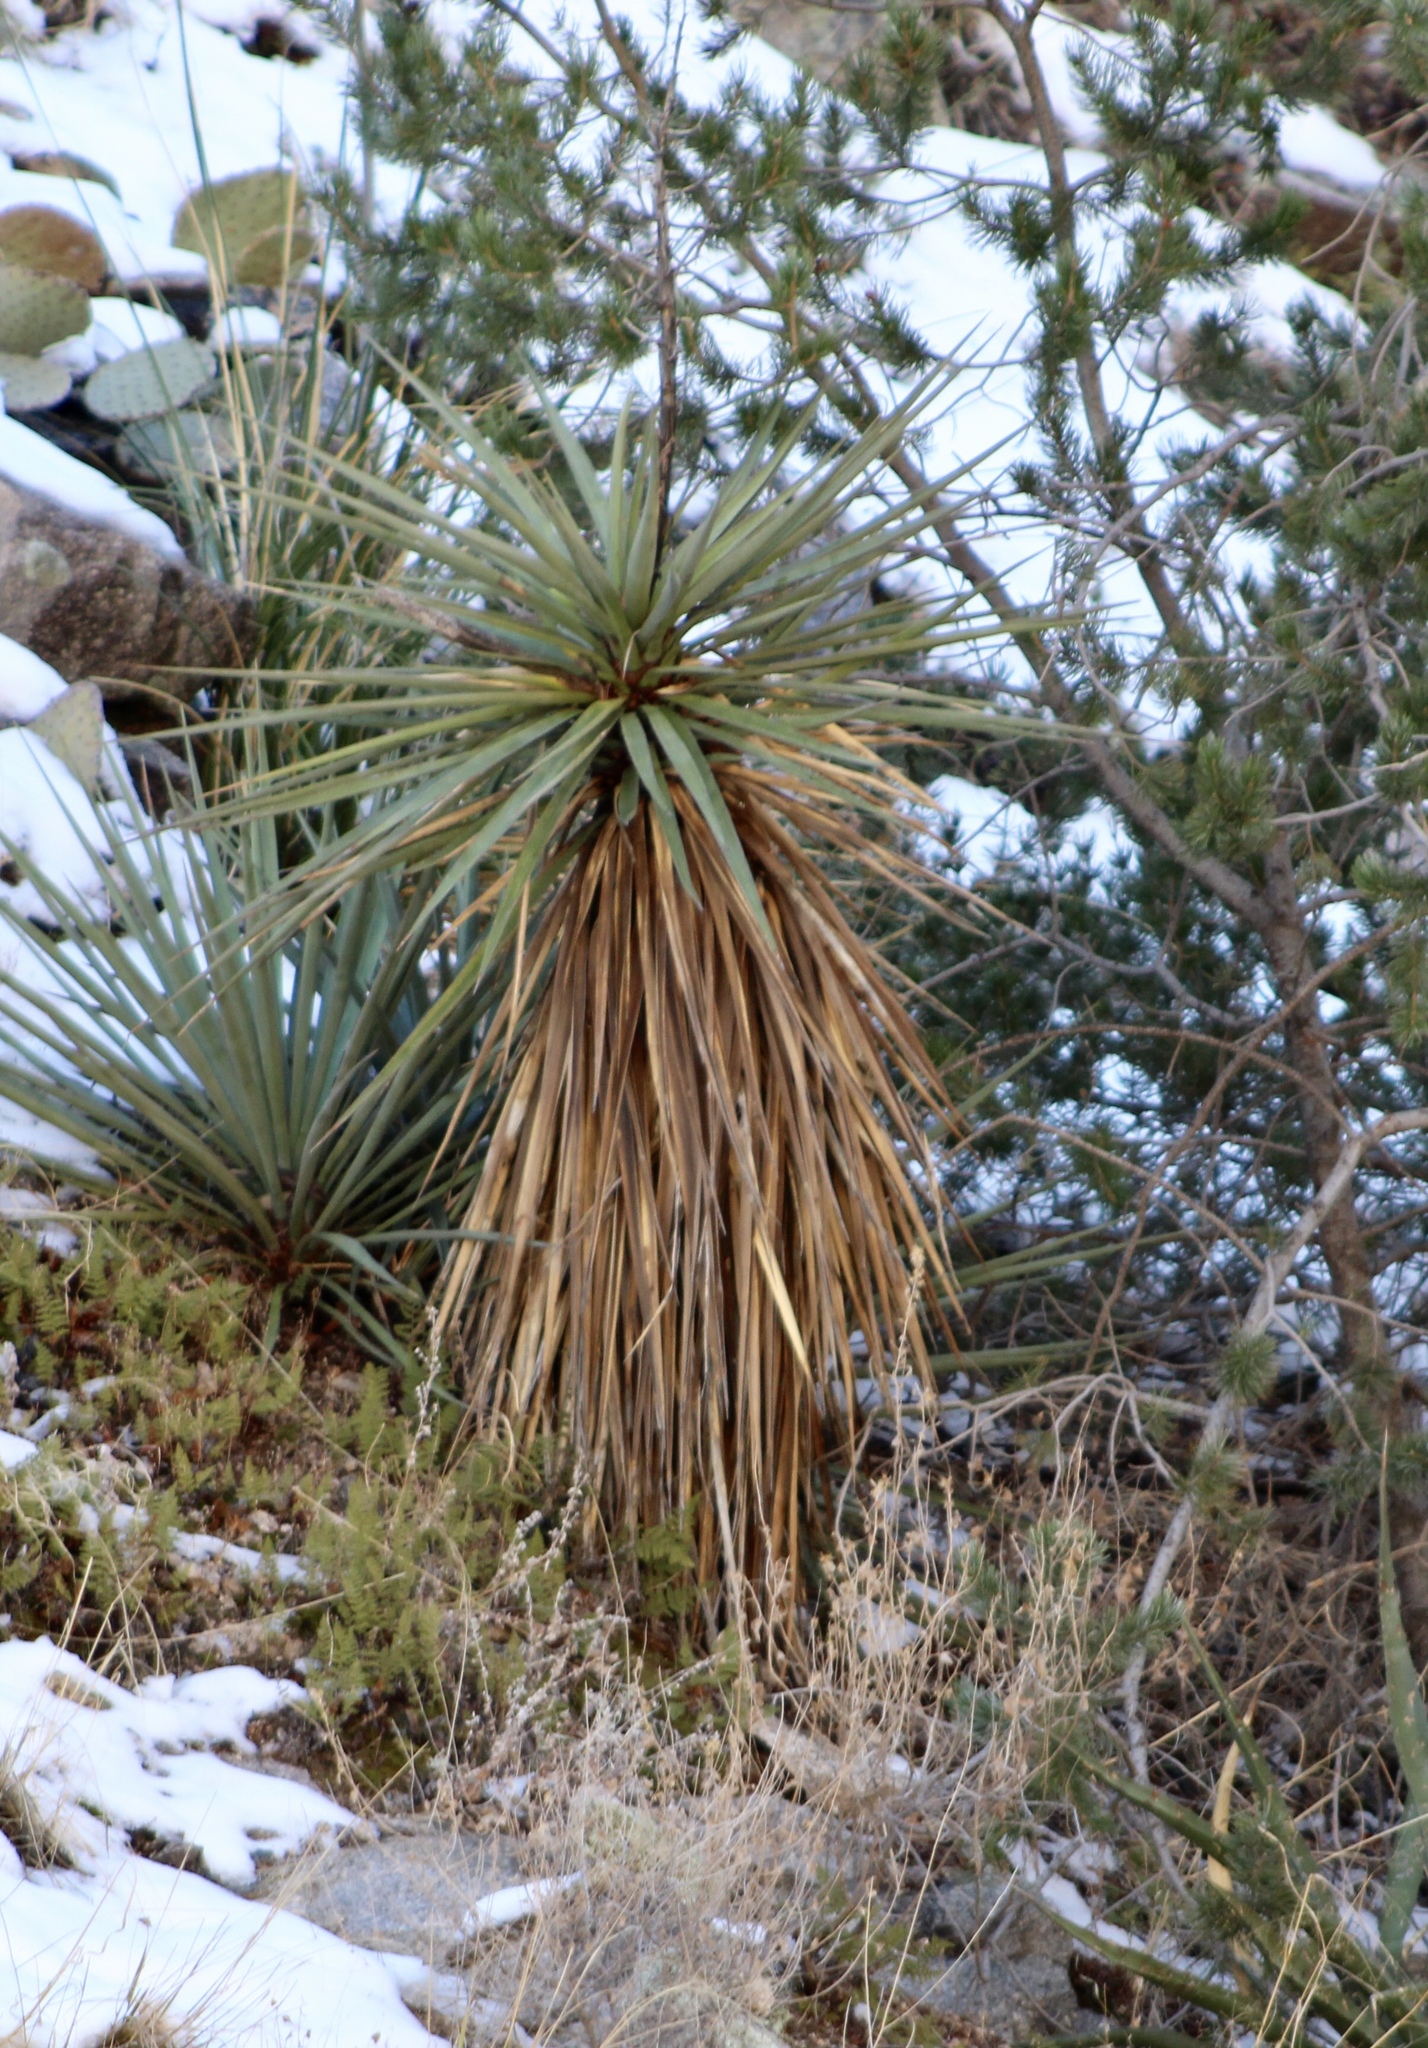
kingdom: Plantae
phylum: Tracheophyta
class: Liliopsida
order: Asparagales
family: Asparagaceae
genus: Yucca
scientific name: Yucca madrensis
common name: Hoary yucca
